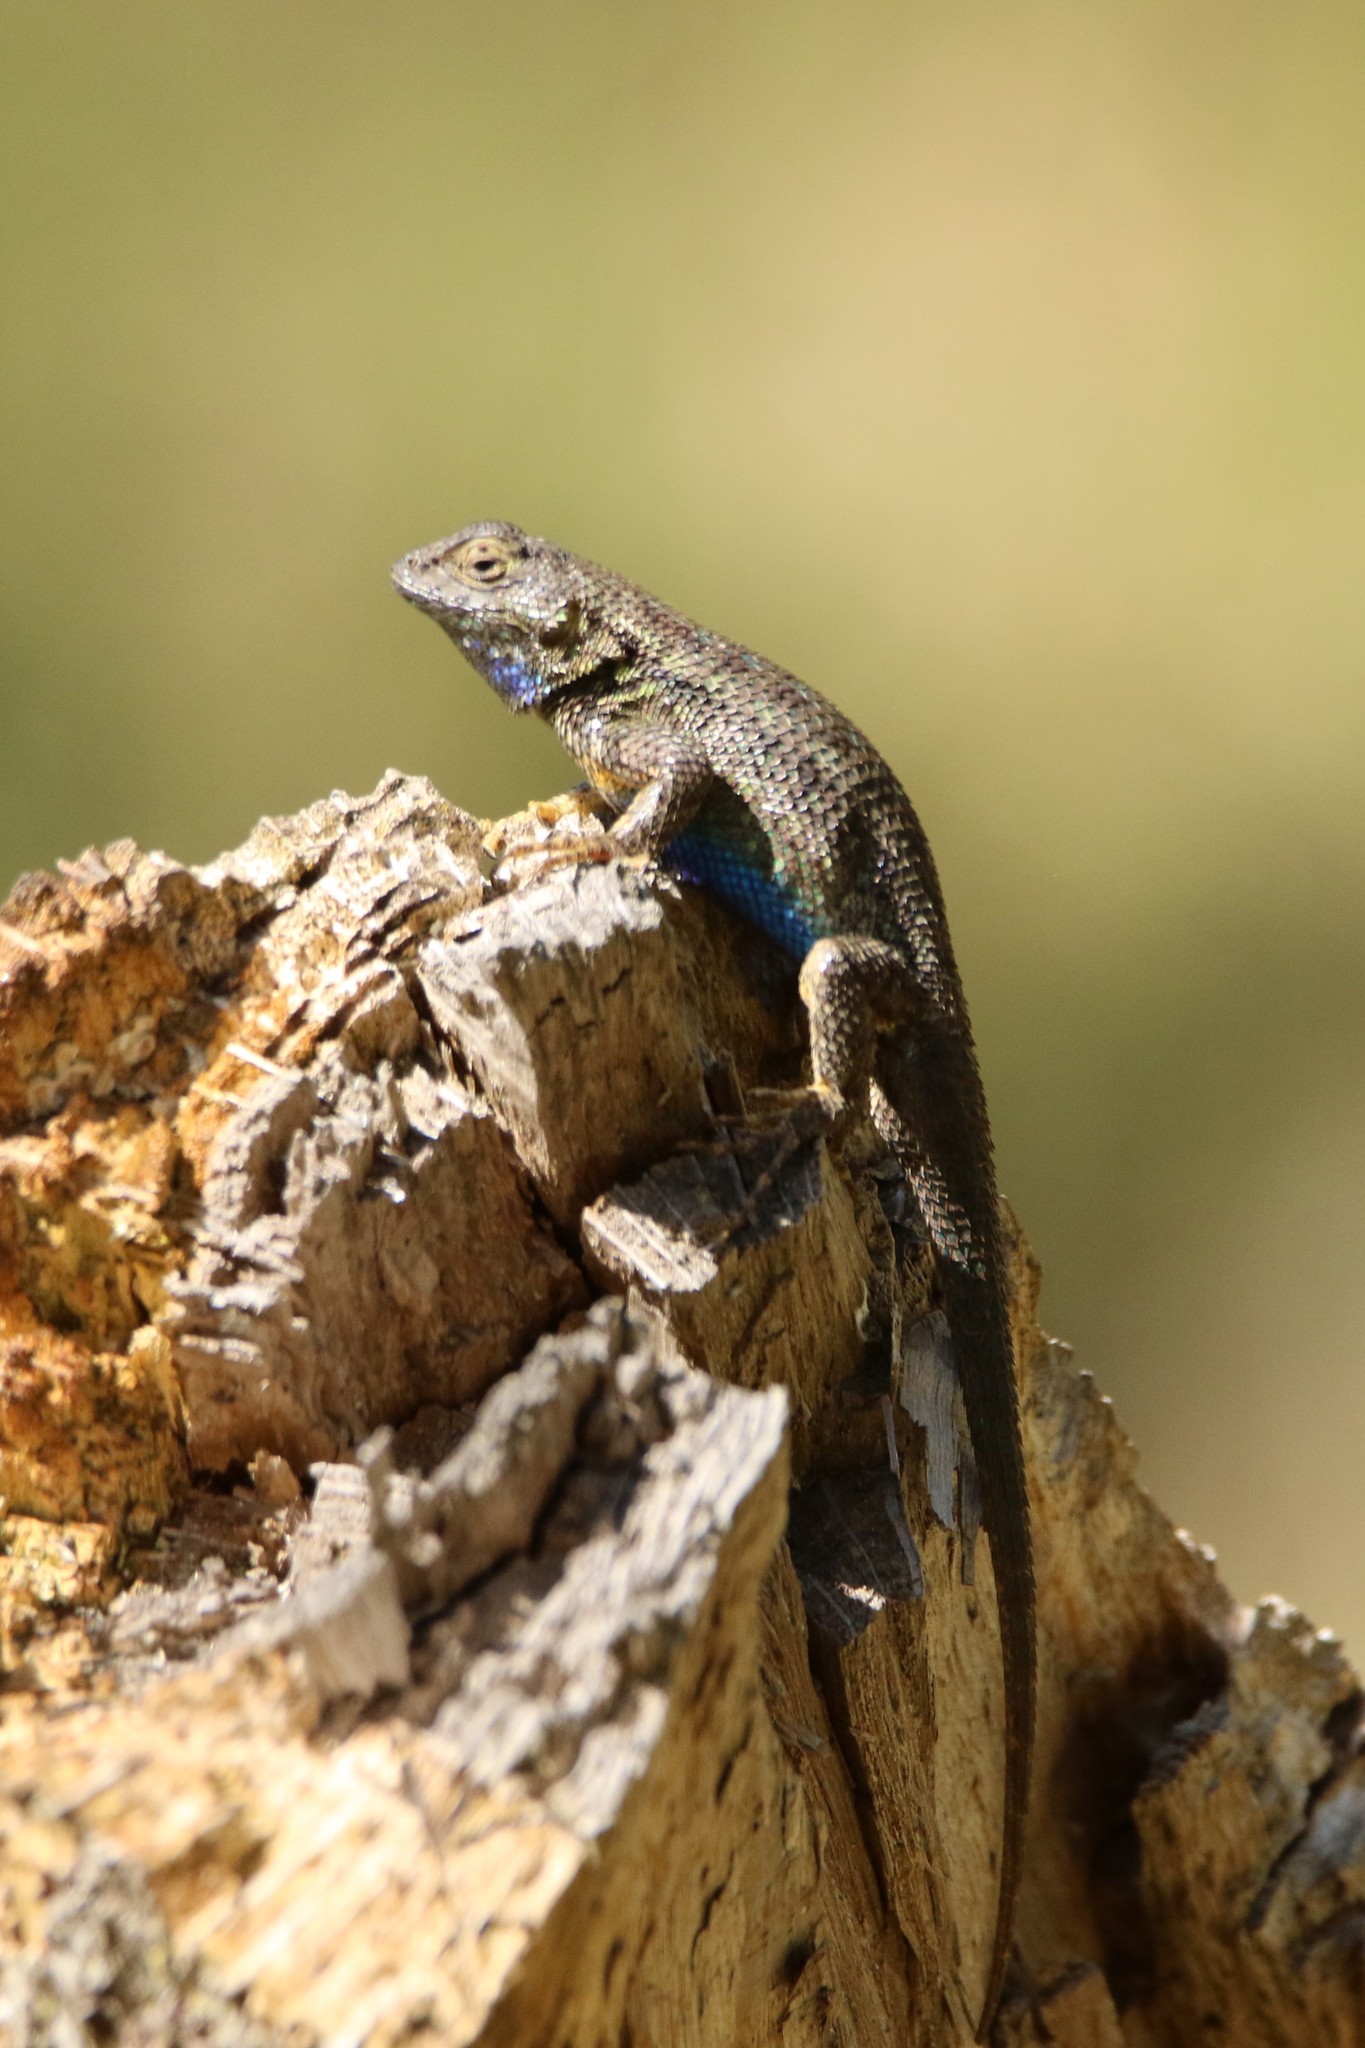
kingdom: Animalia
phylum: Chordata
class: Squamata
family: Phrynosomatidae
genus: Sceloporus
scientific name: Sceloporus occidentalis
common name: Western fence lizard
